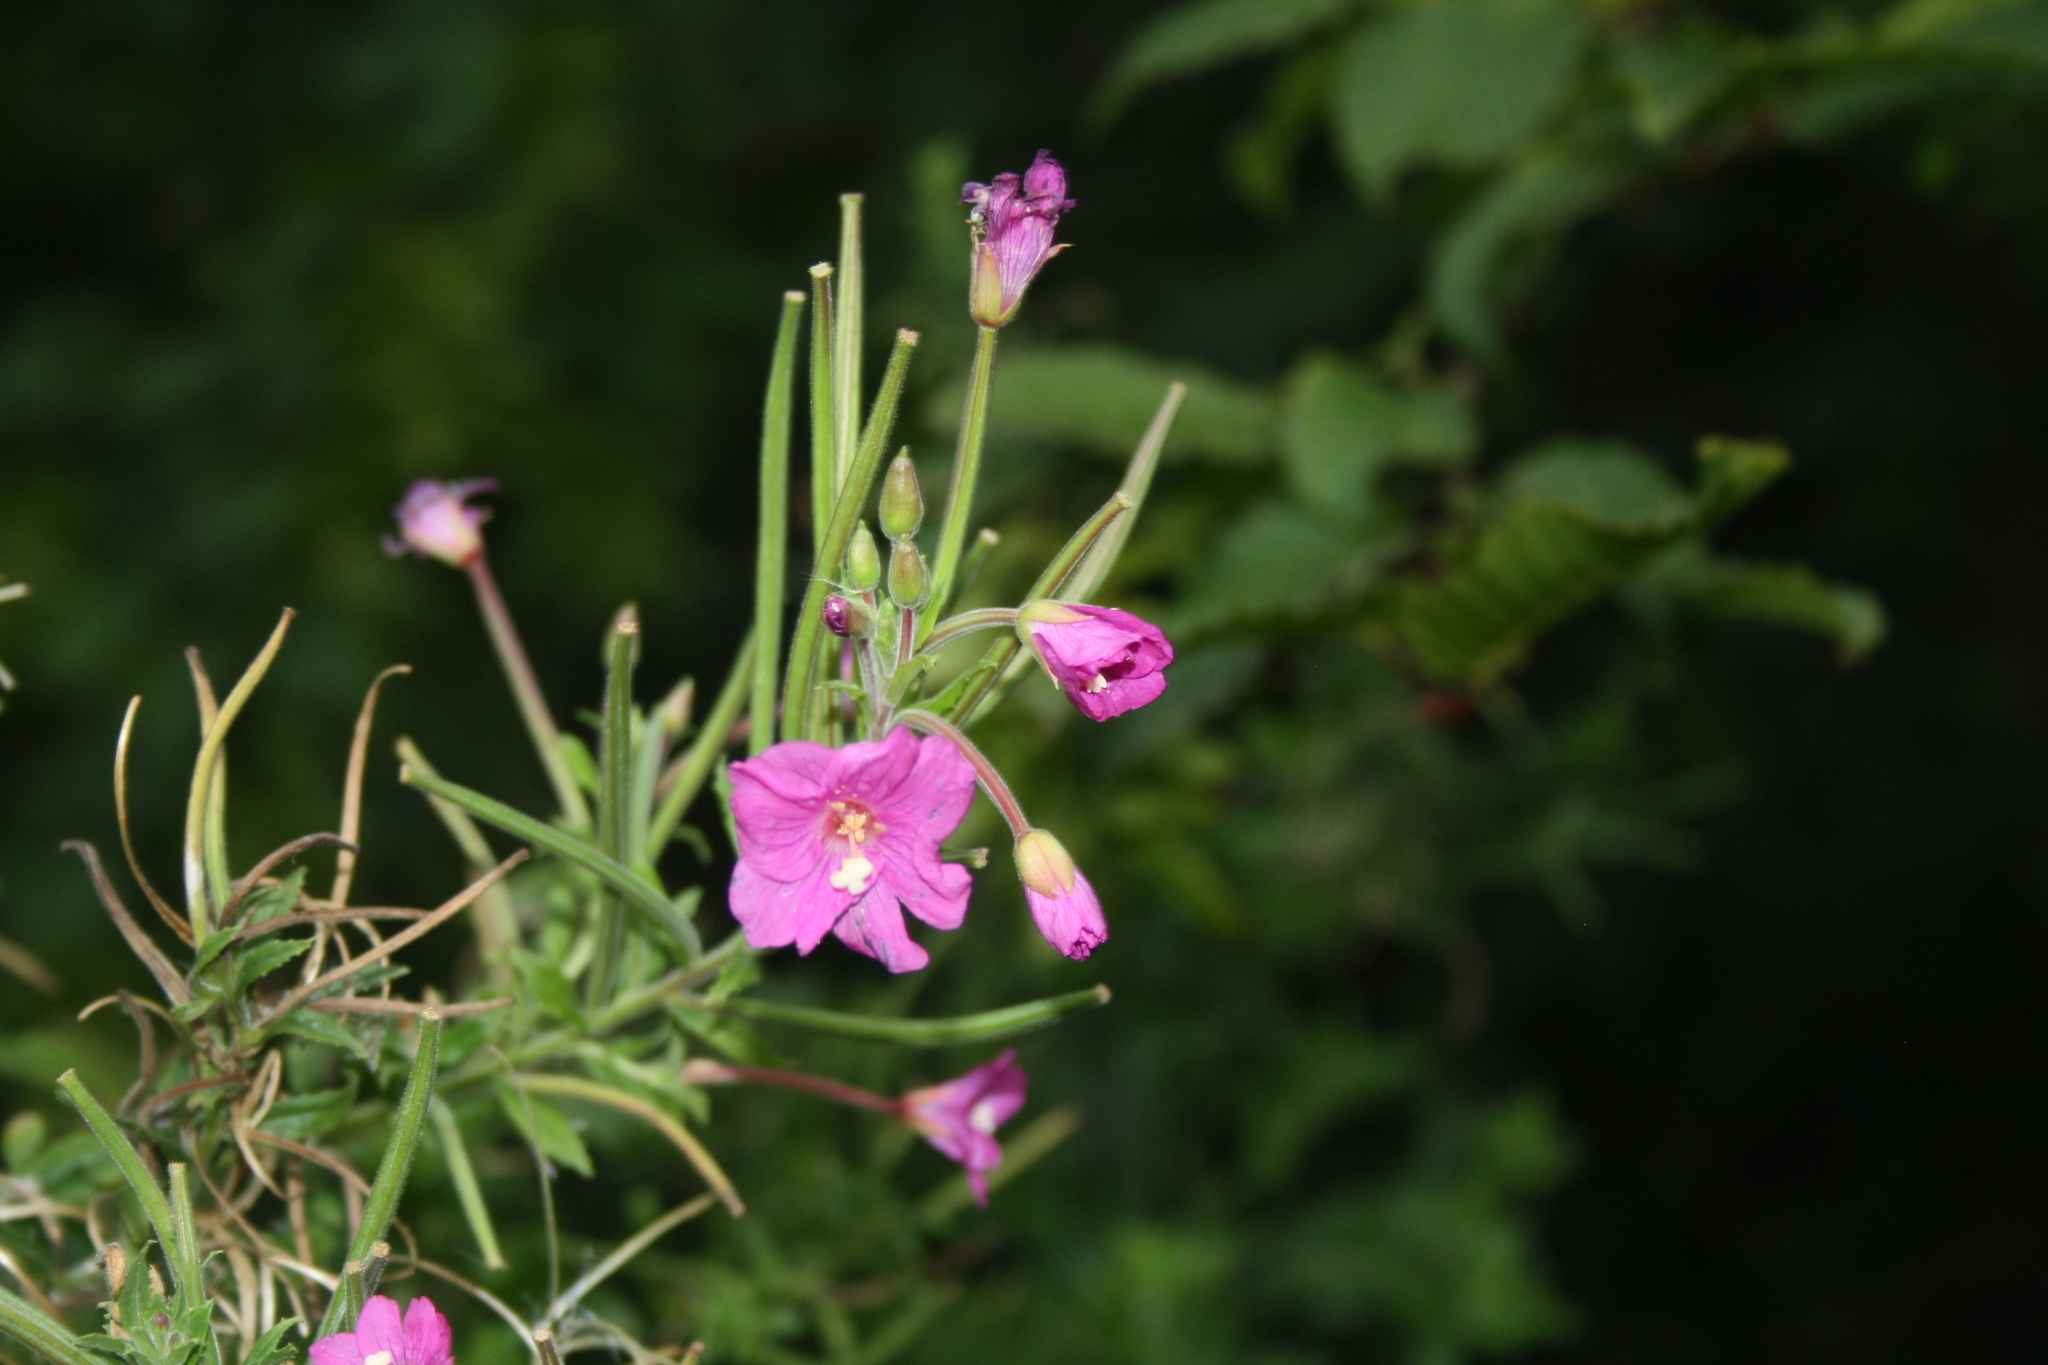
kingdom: Plantae
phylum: Tracheophyta
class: Magnoliopsida
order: Myrtales
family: Onagraceae
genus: Epilobium
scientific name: Epilobium hirsutum
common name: Great willowherb
